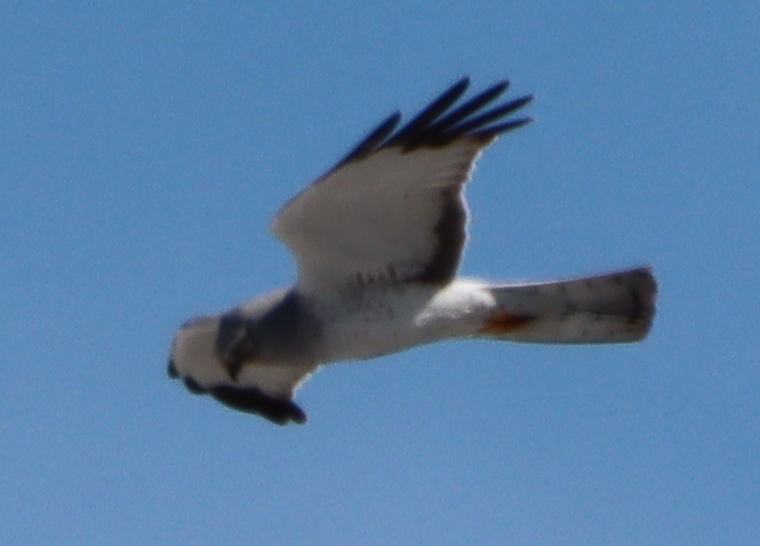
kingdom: Animalia
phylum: Chordata
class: Aves
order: Accipitriformes
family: Accipitridae
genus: Circus
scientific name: Circus cyaneus
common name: Hen harrier
